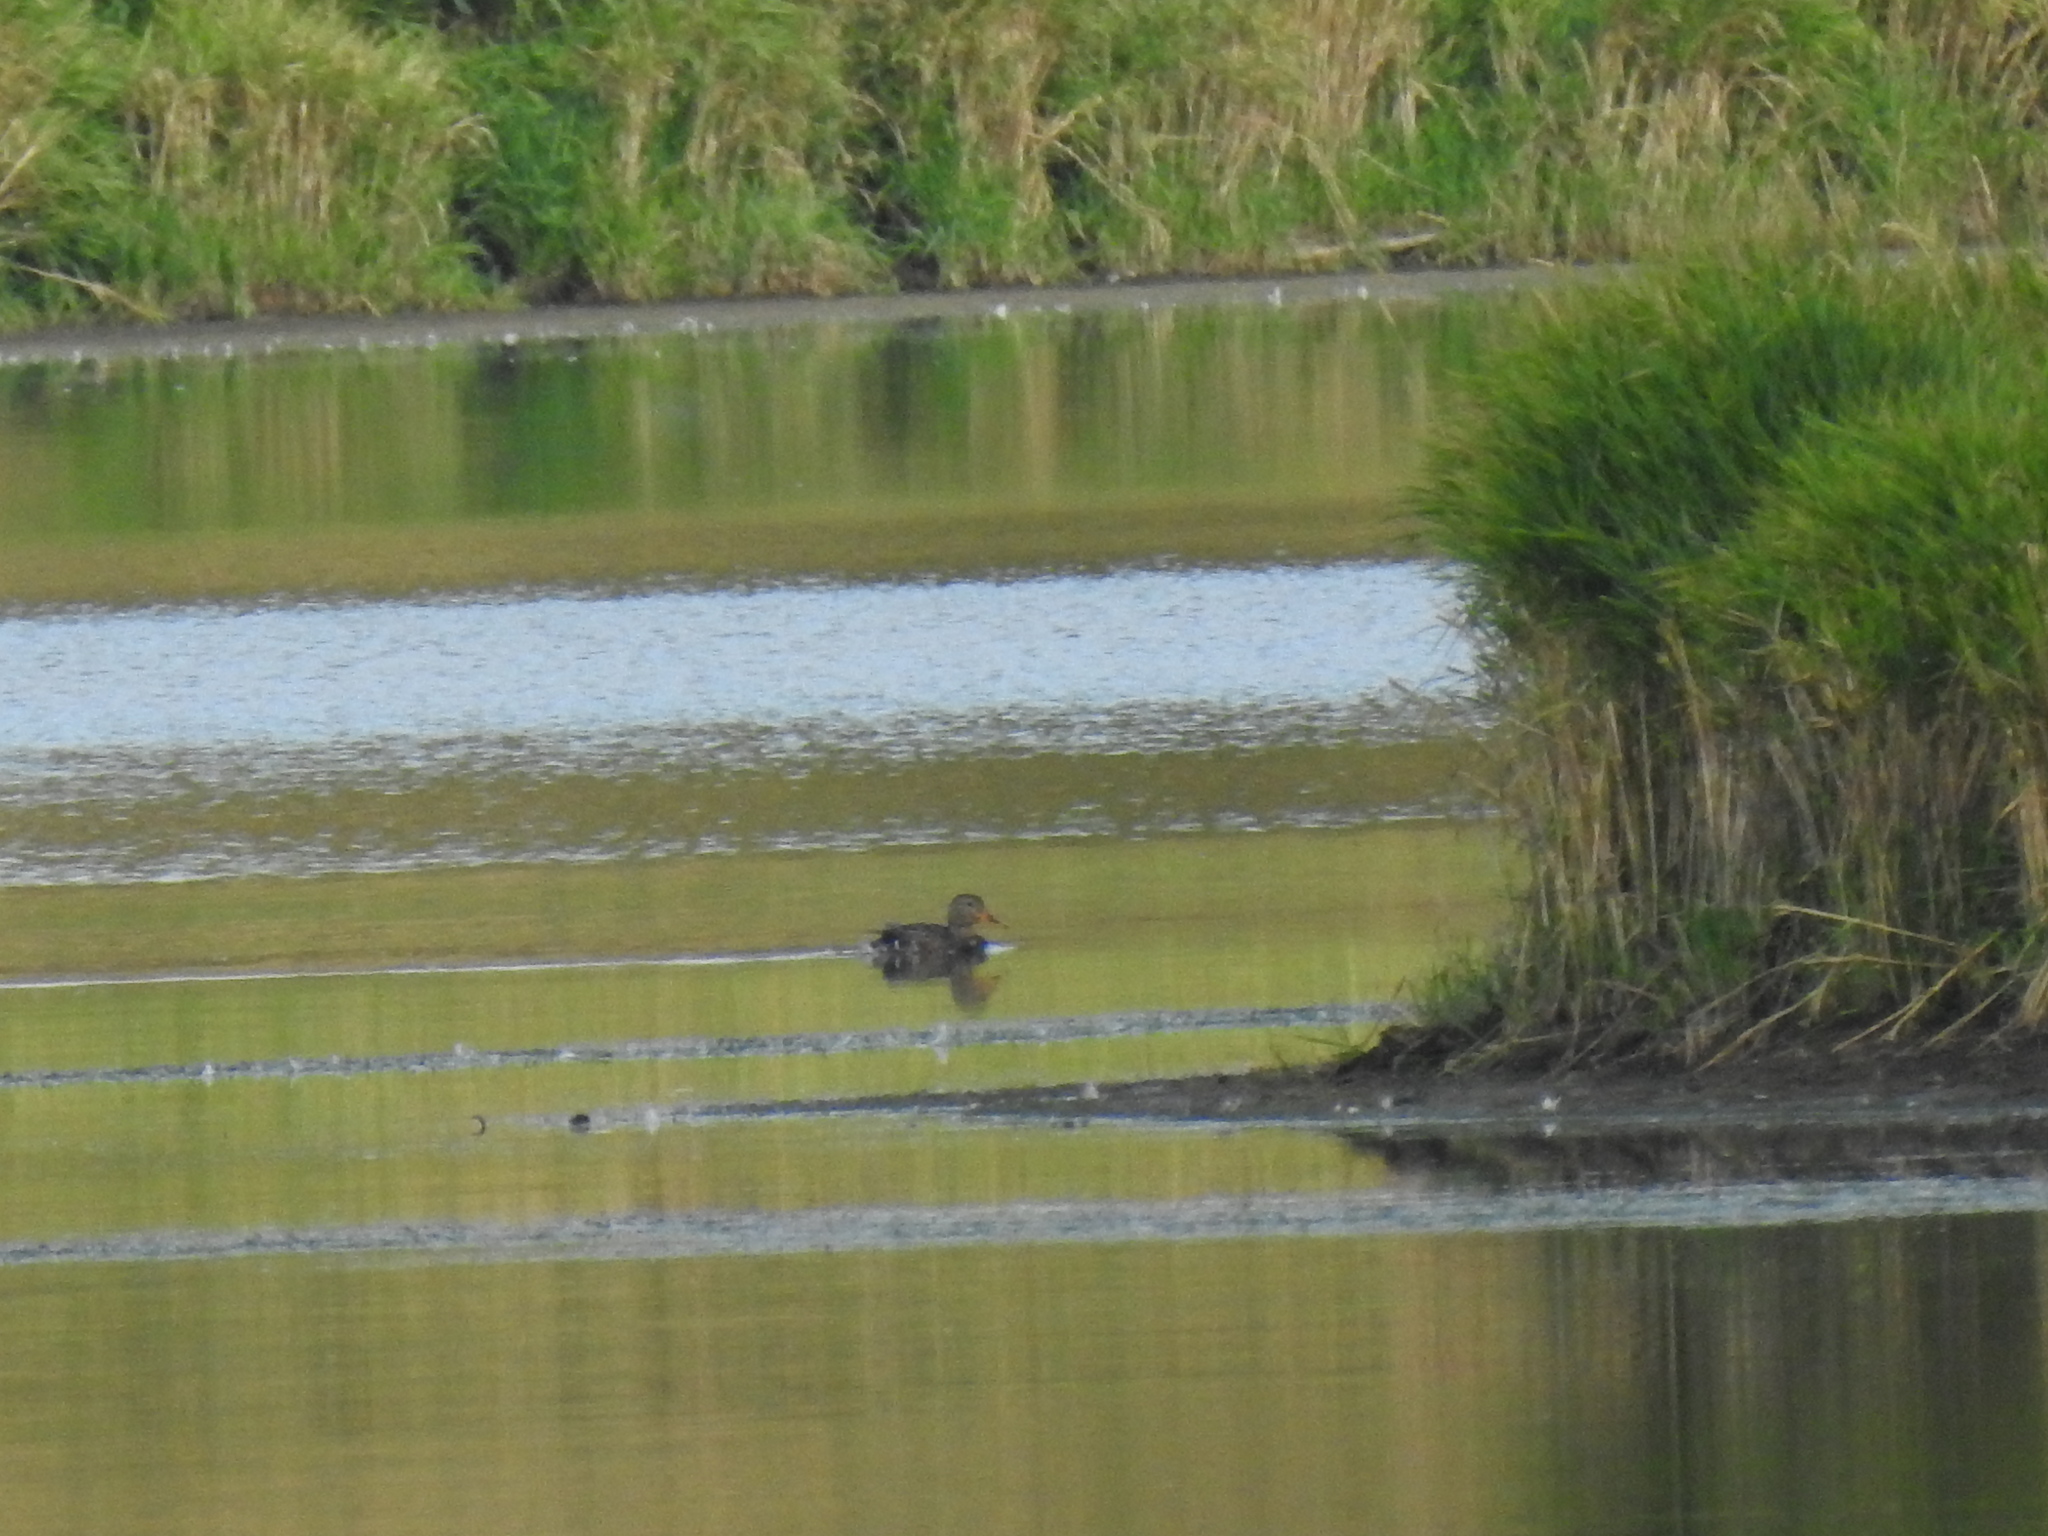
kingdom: Animalia
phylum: Chordata
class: Aves
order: Anseriformes
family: Anatidae
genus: Anas
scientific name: Anas platyrhynchos
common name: Mallard
